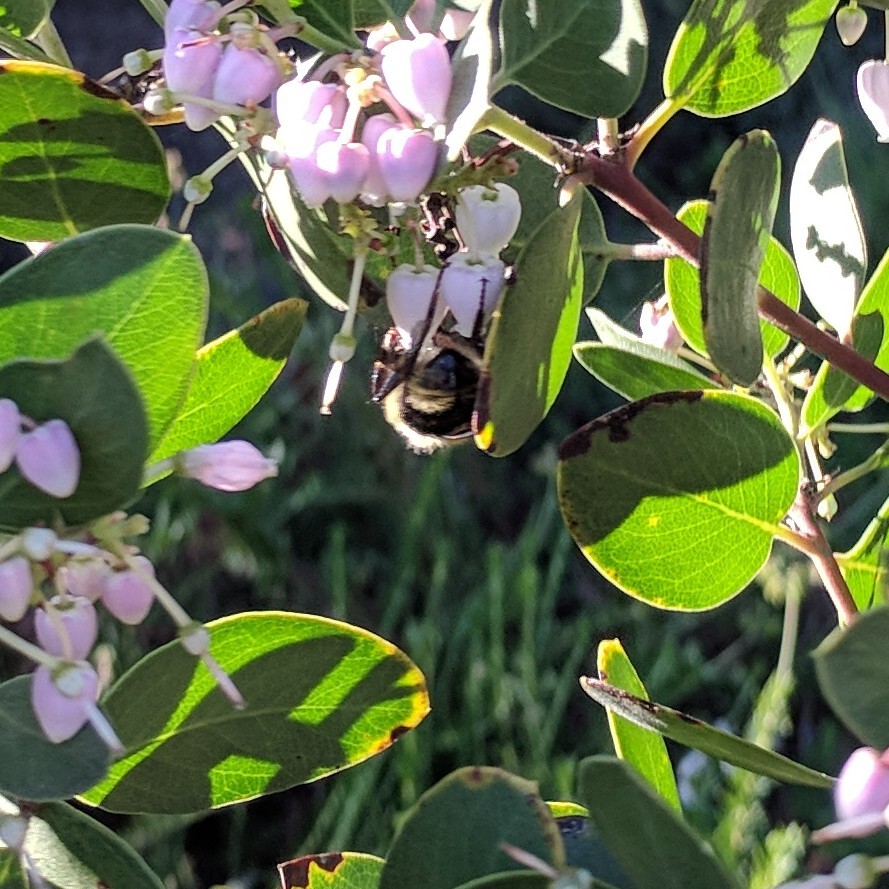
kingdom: Animalia
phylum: Arthropoda
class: Insecta
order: Hymenoptera
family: Apidae
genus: Bombus
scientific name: Bombus melanopygus
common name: Black tail bumble bee
